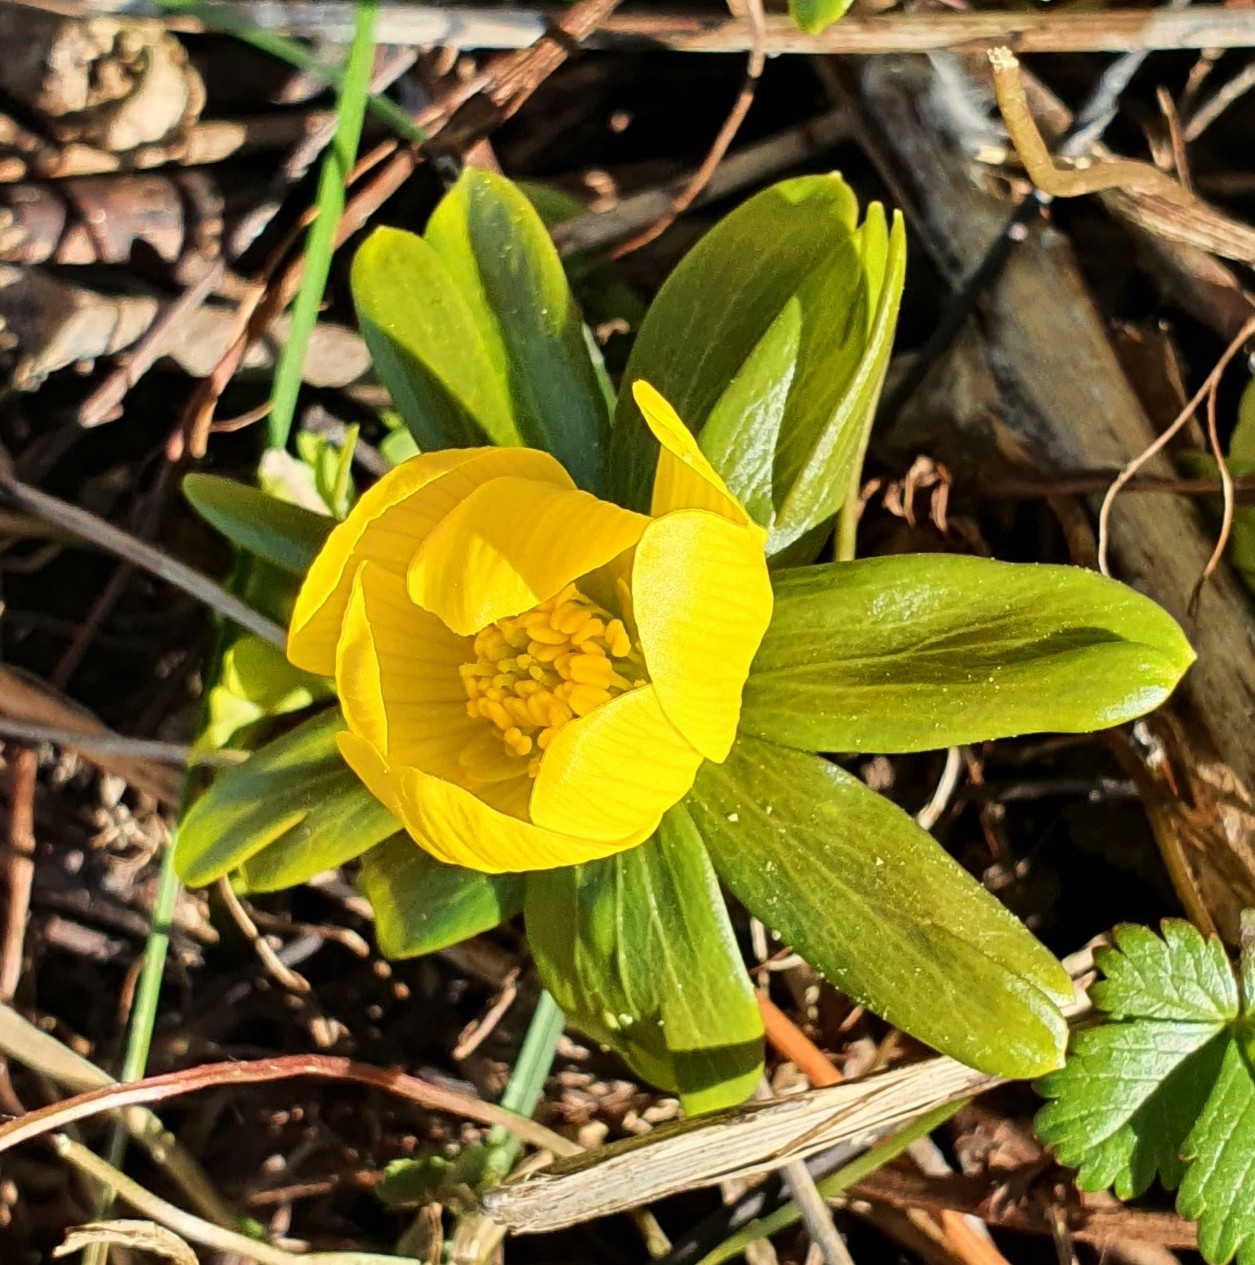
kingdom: Plantae
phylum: Tracheophyta
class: Magnoliopsida
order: Ranunculales
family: Ranunculaceae
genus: Eranthis
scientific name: Eranthis hyemalis
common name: Winter aconite
